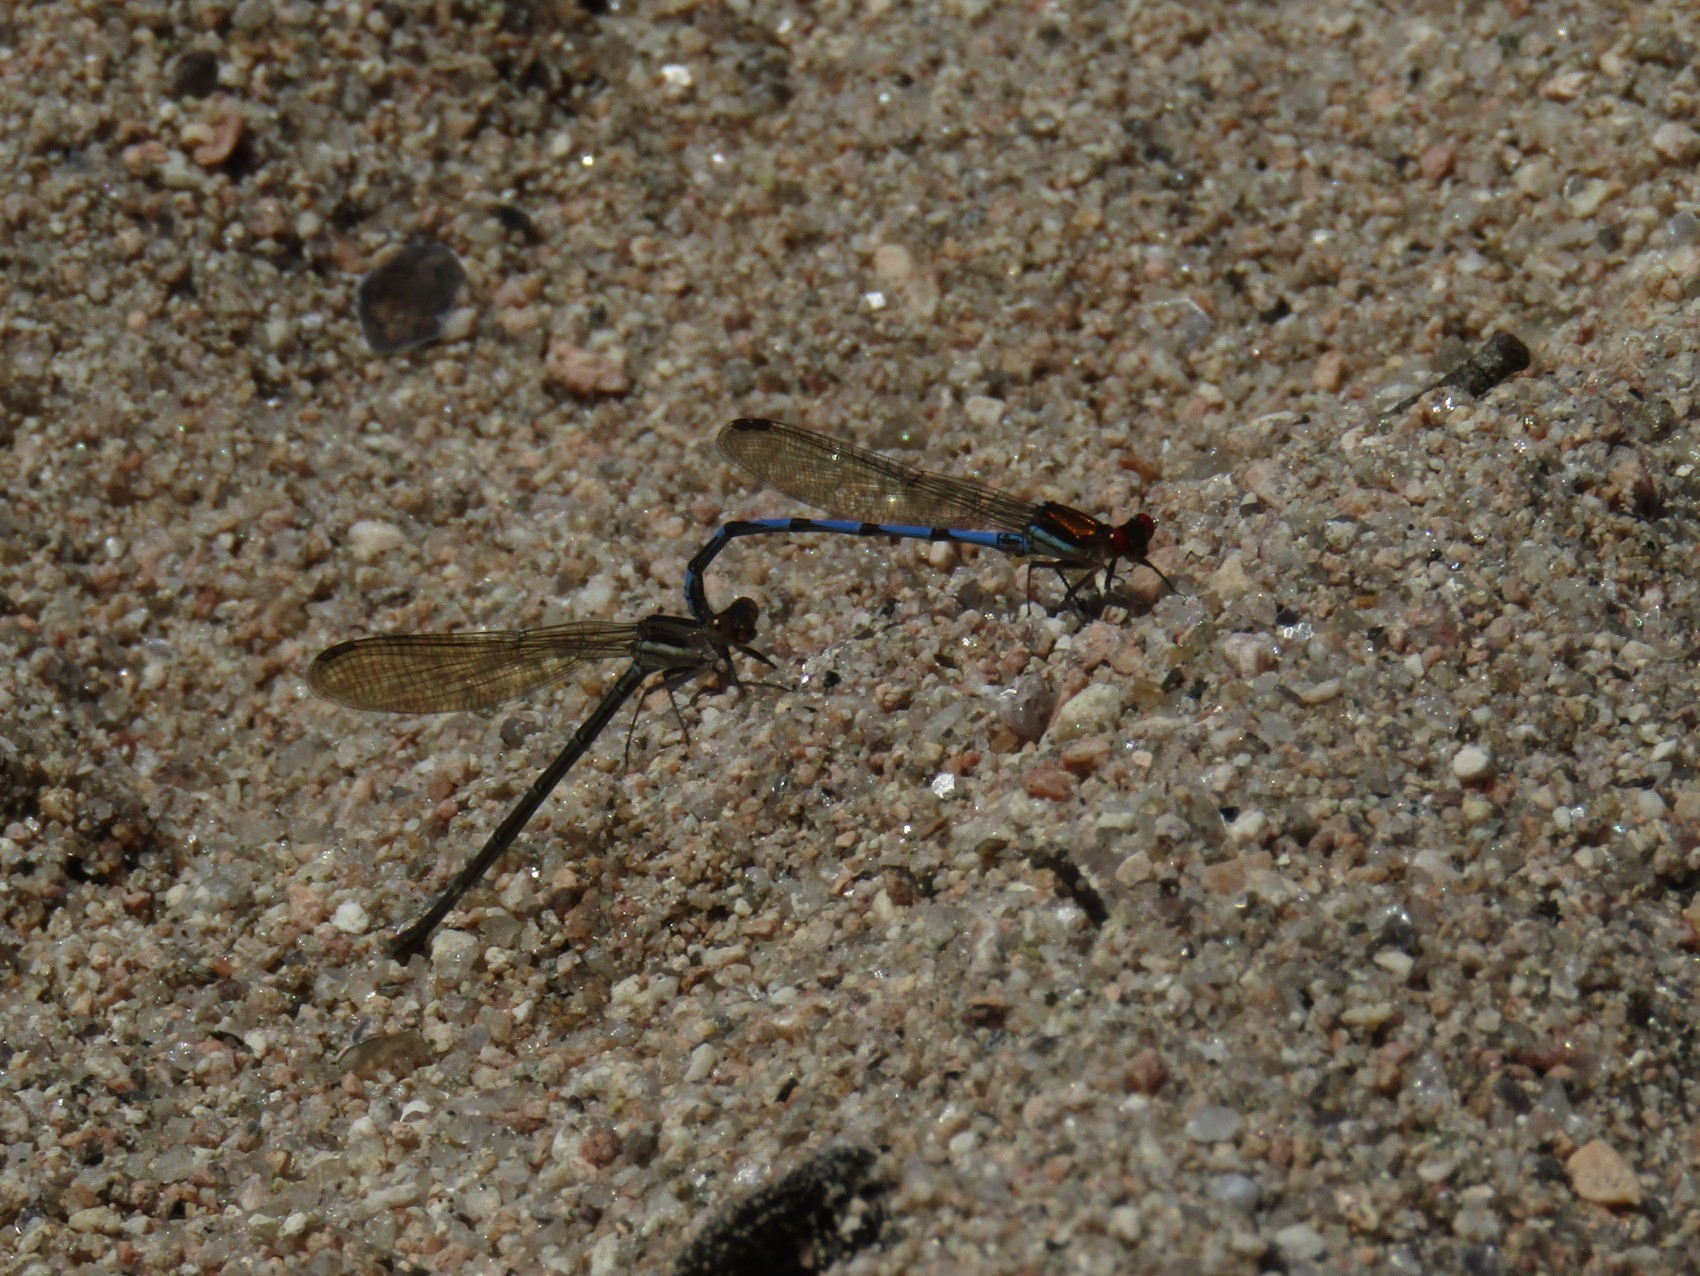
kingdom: Animalia
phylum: Arthropoda
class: Insecta
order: Odonata
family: Coenagrionidae
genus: Argia
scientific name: Argia joergenseni
